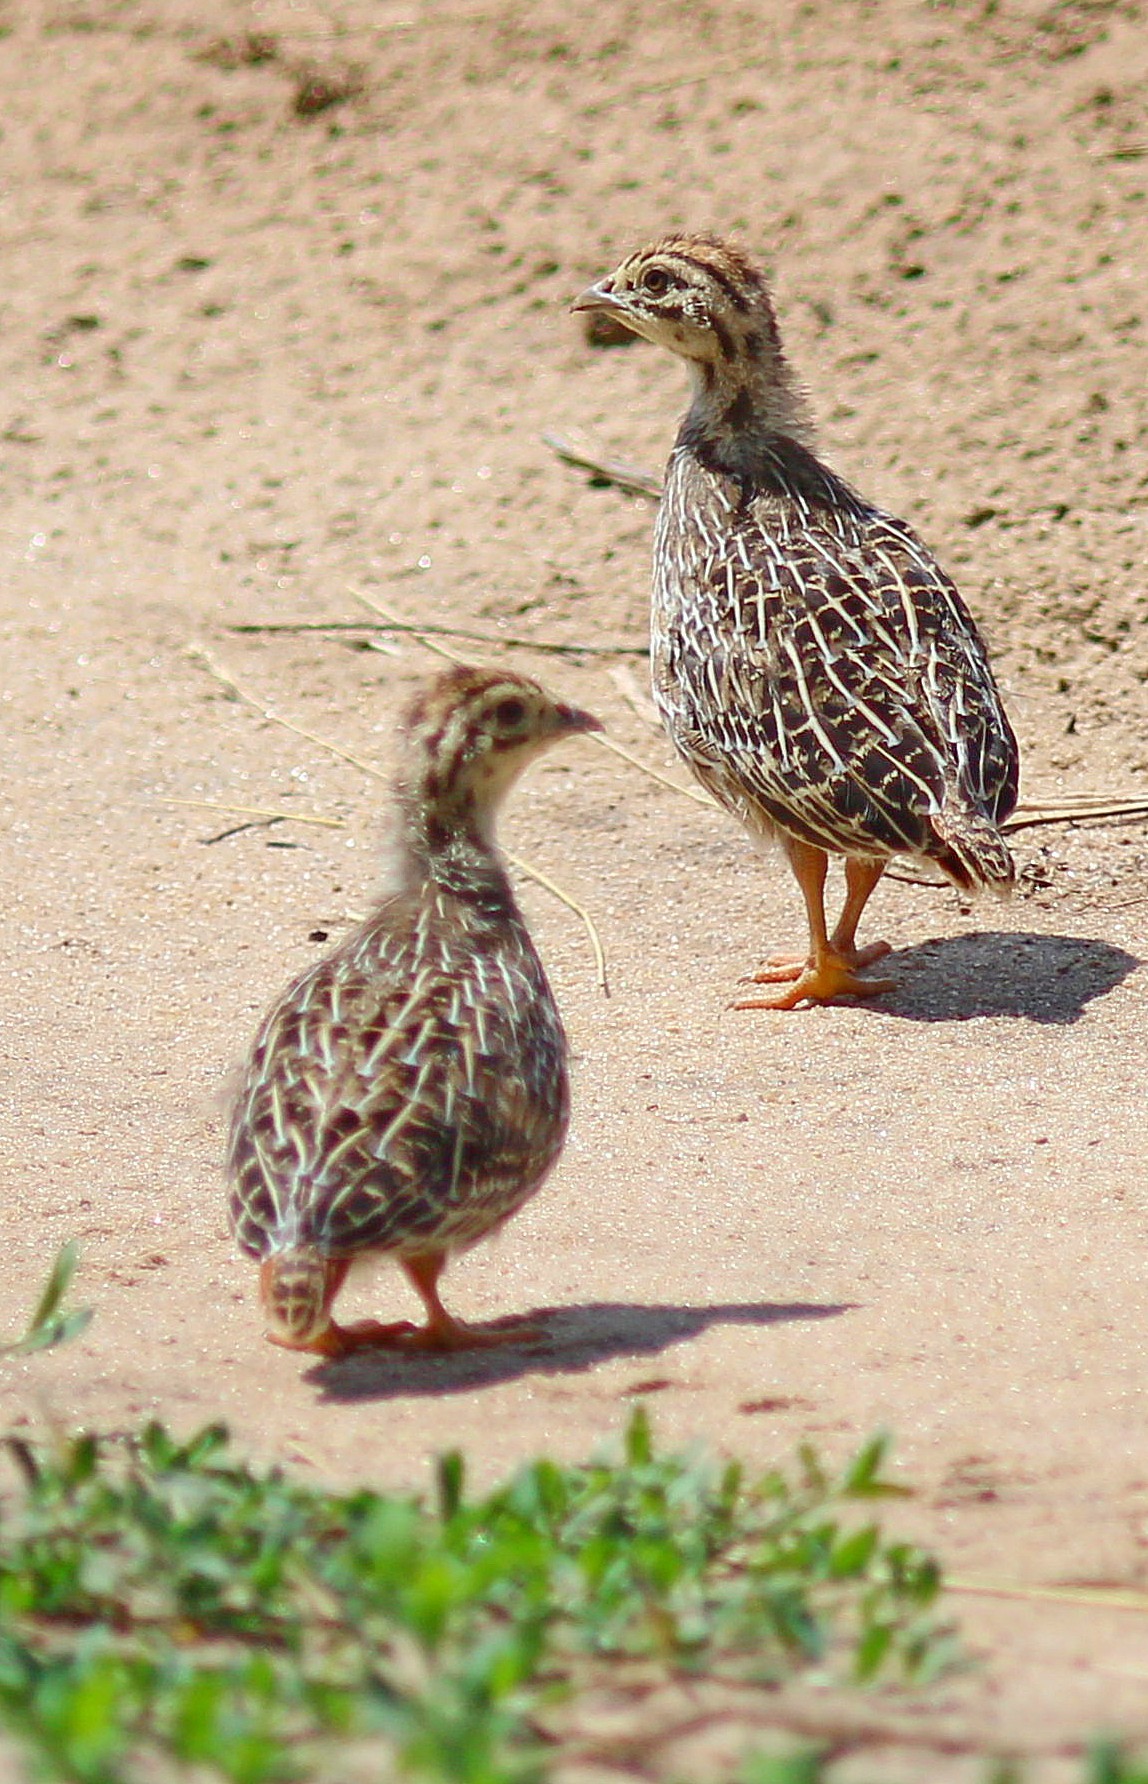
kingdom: Animalia
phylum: Chordata
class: Aves
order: Galliformes
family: Phasianidae
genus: Perdix
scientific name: Perdix perdix
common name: Grey partridge
